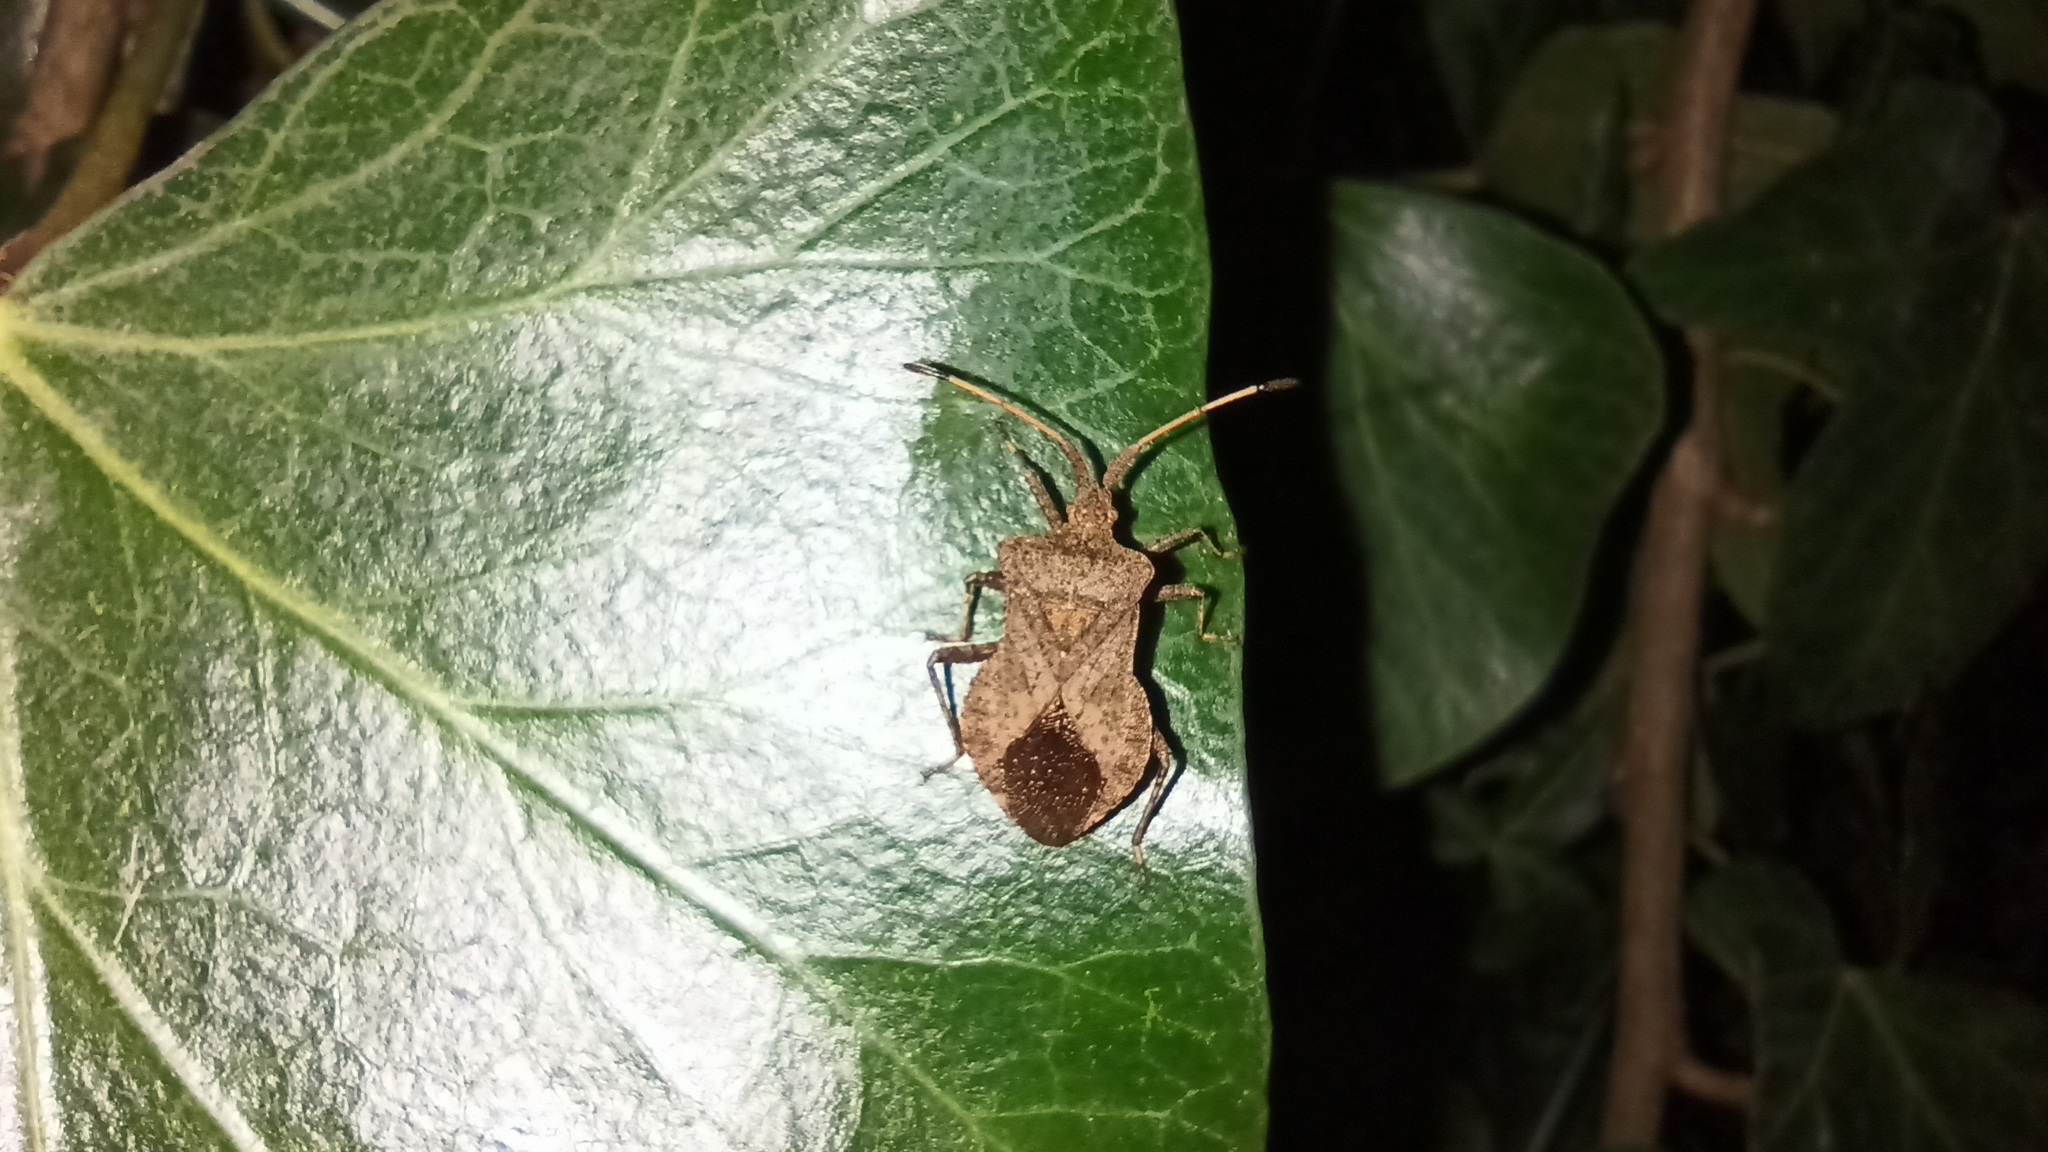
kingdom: Animalia
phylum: Arthropoda
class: Insecta
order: Hemiptera
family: Coreidae
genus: Coreus
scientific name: Coreus marginatus
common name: Dock bug
